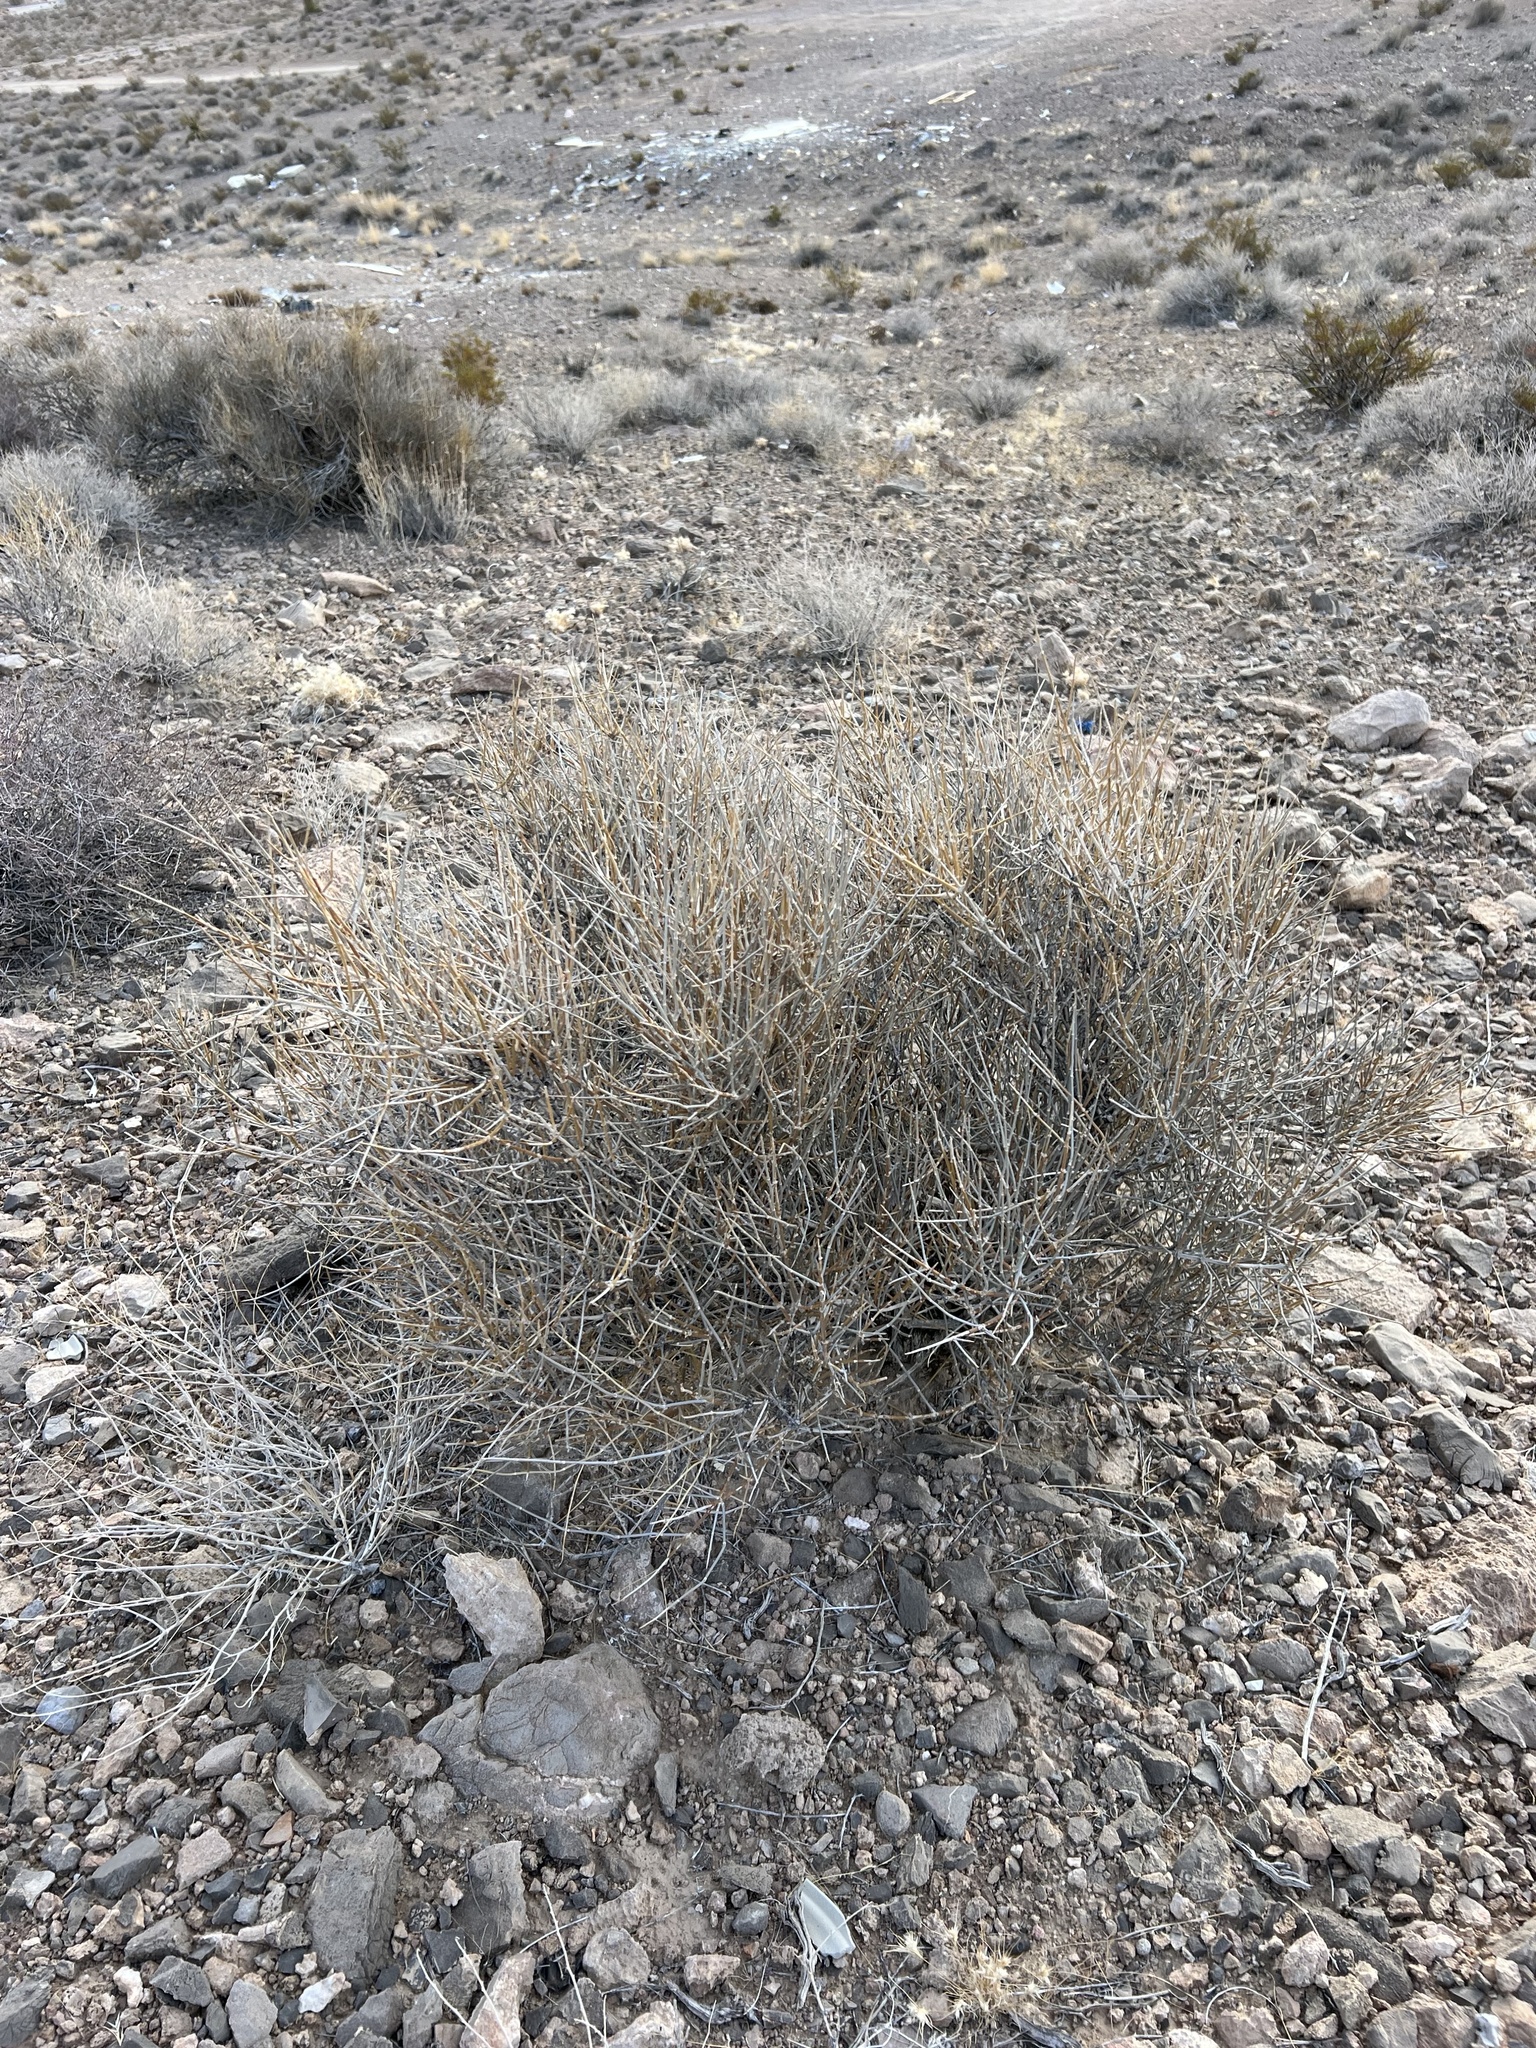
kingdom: Plantae
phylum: Tracheophyta
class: Gnetopsida
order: Ephedrales
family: Ephedraceae
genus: Ephedra
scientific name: Ephedra nevadensis
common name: Gray ephedra
